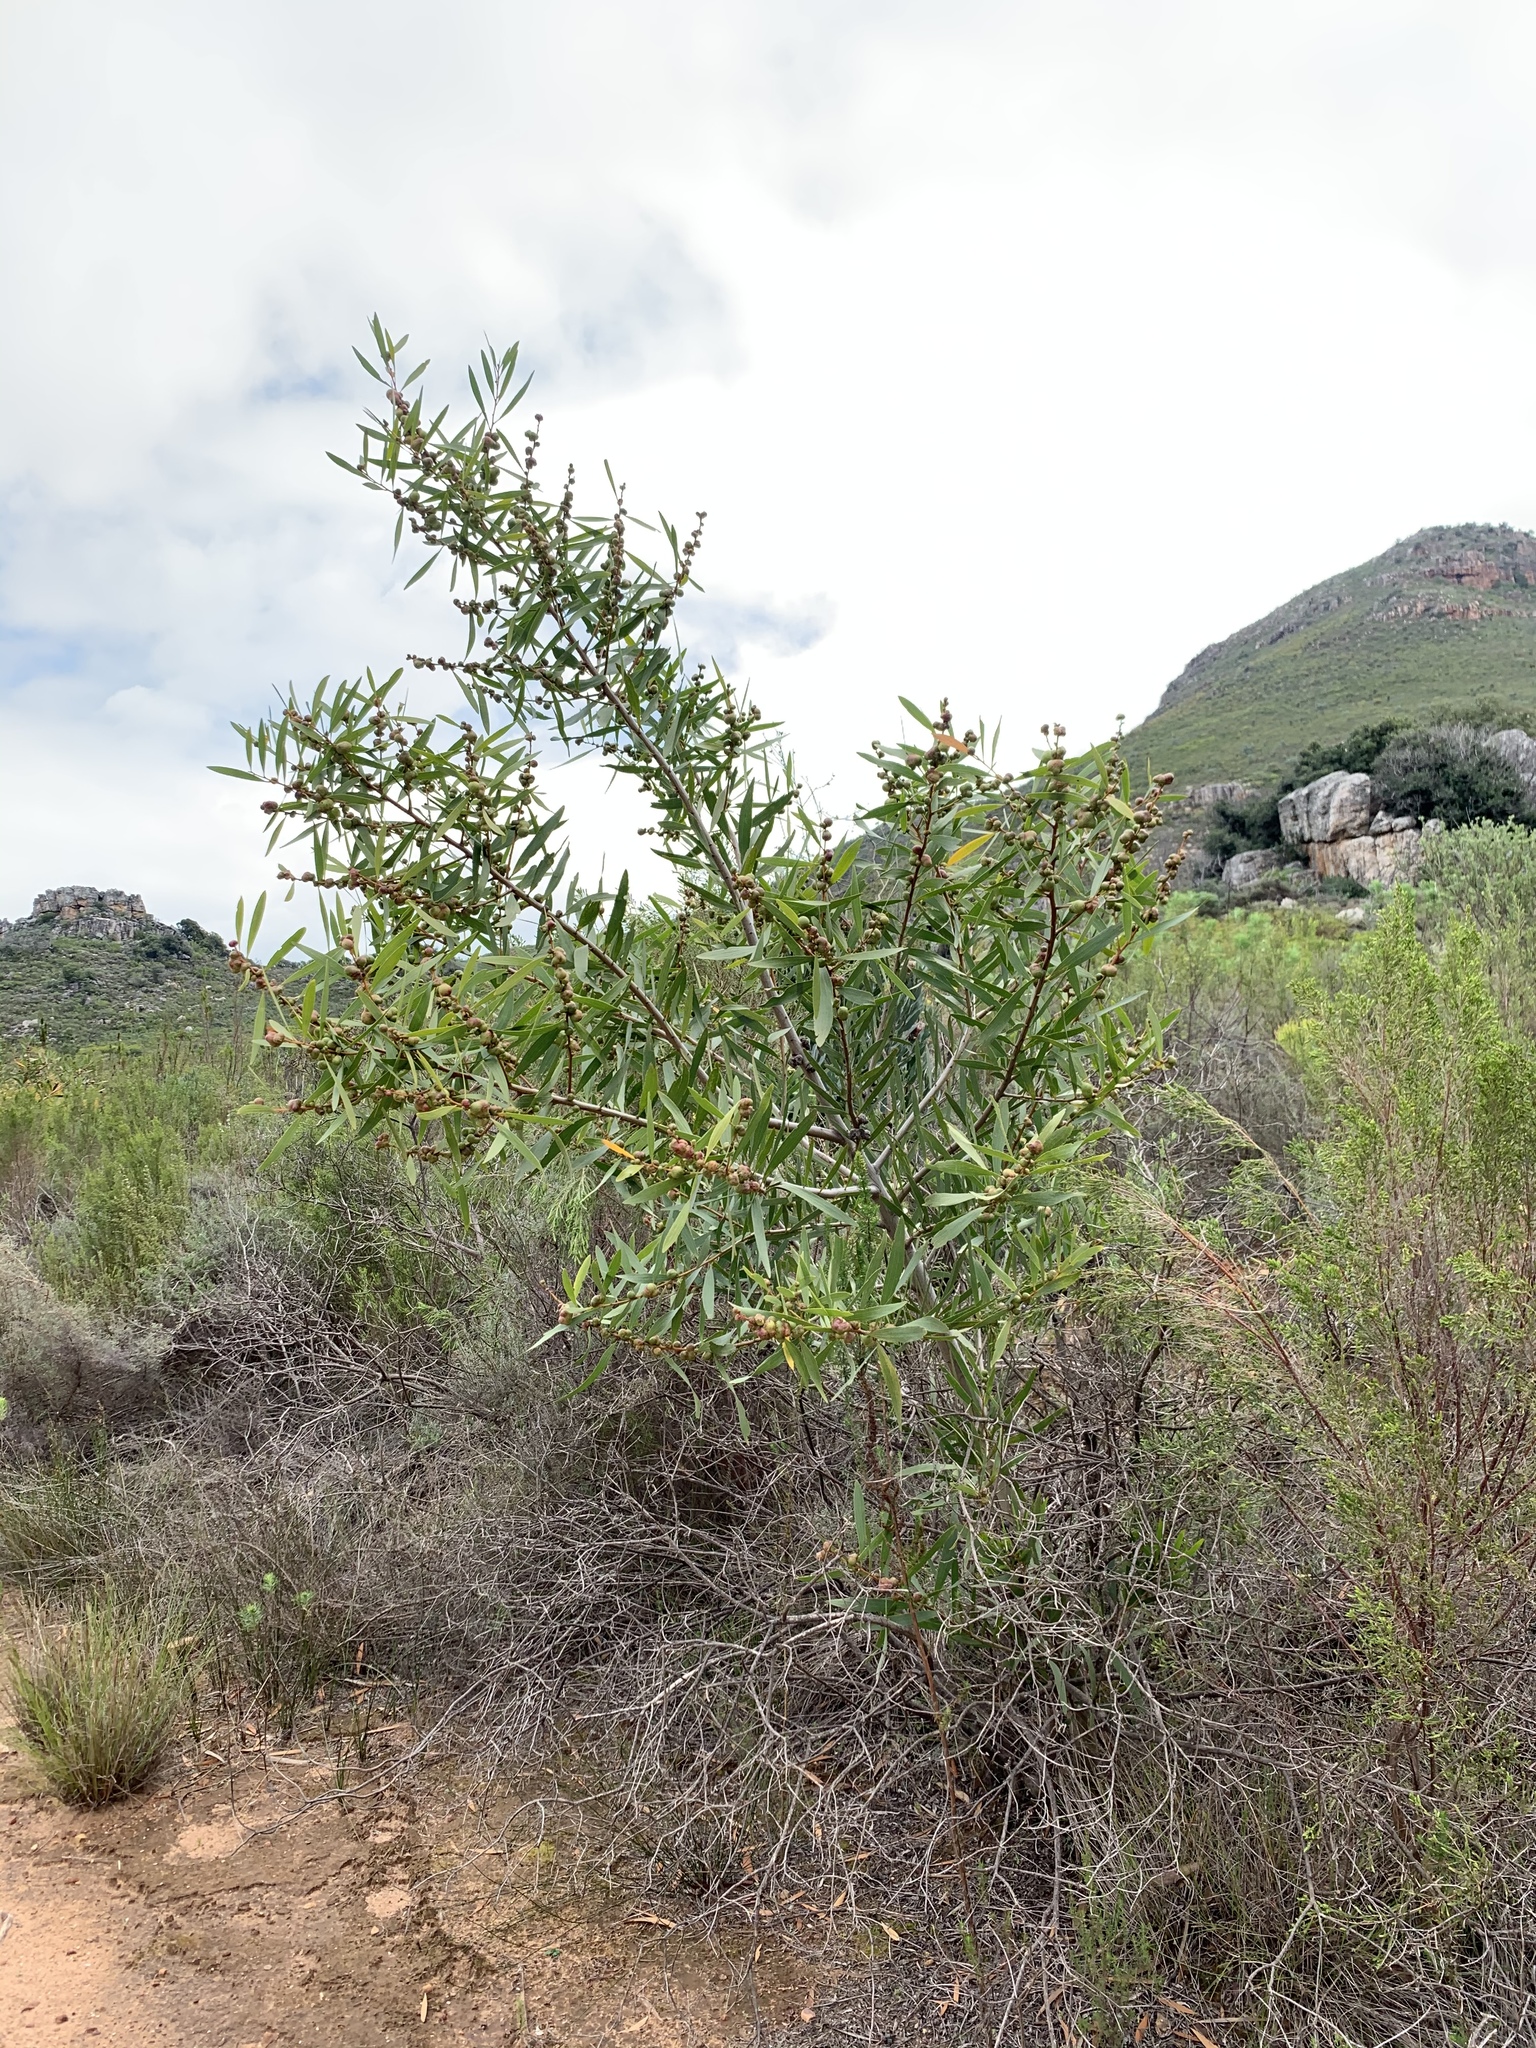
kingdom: Plantae
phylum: Tracheophyta
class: Magnoliopsida
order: Fabales
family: Fabaceae
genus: Acacia
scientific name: Acacia longifolia
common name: Sydney golden wattle
